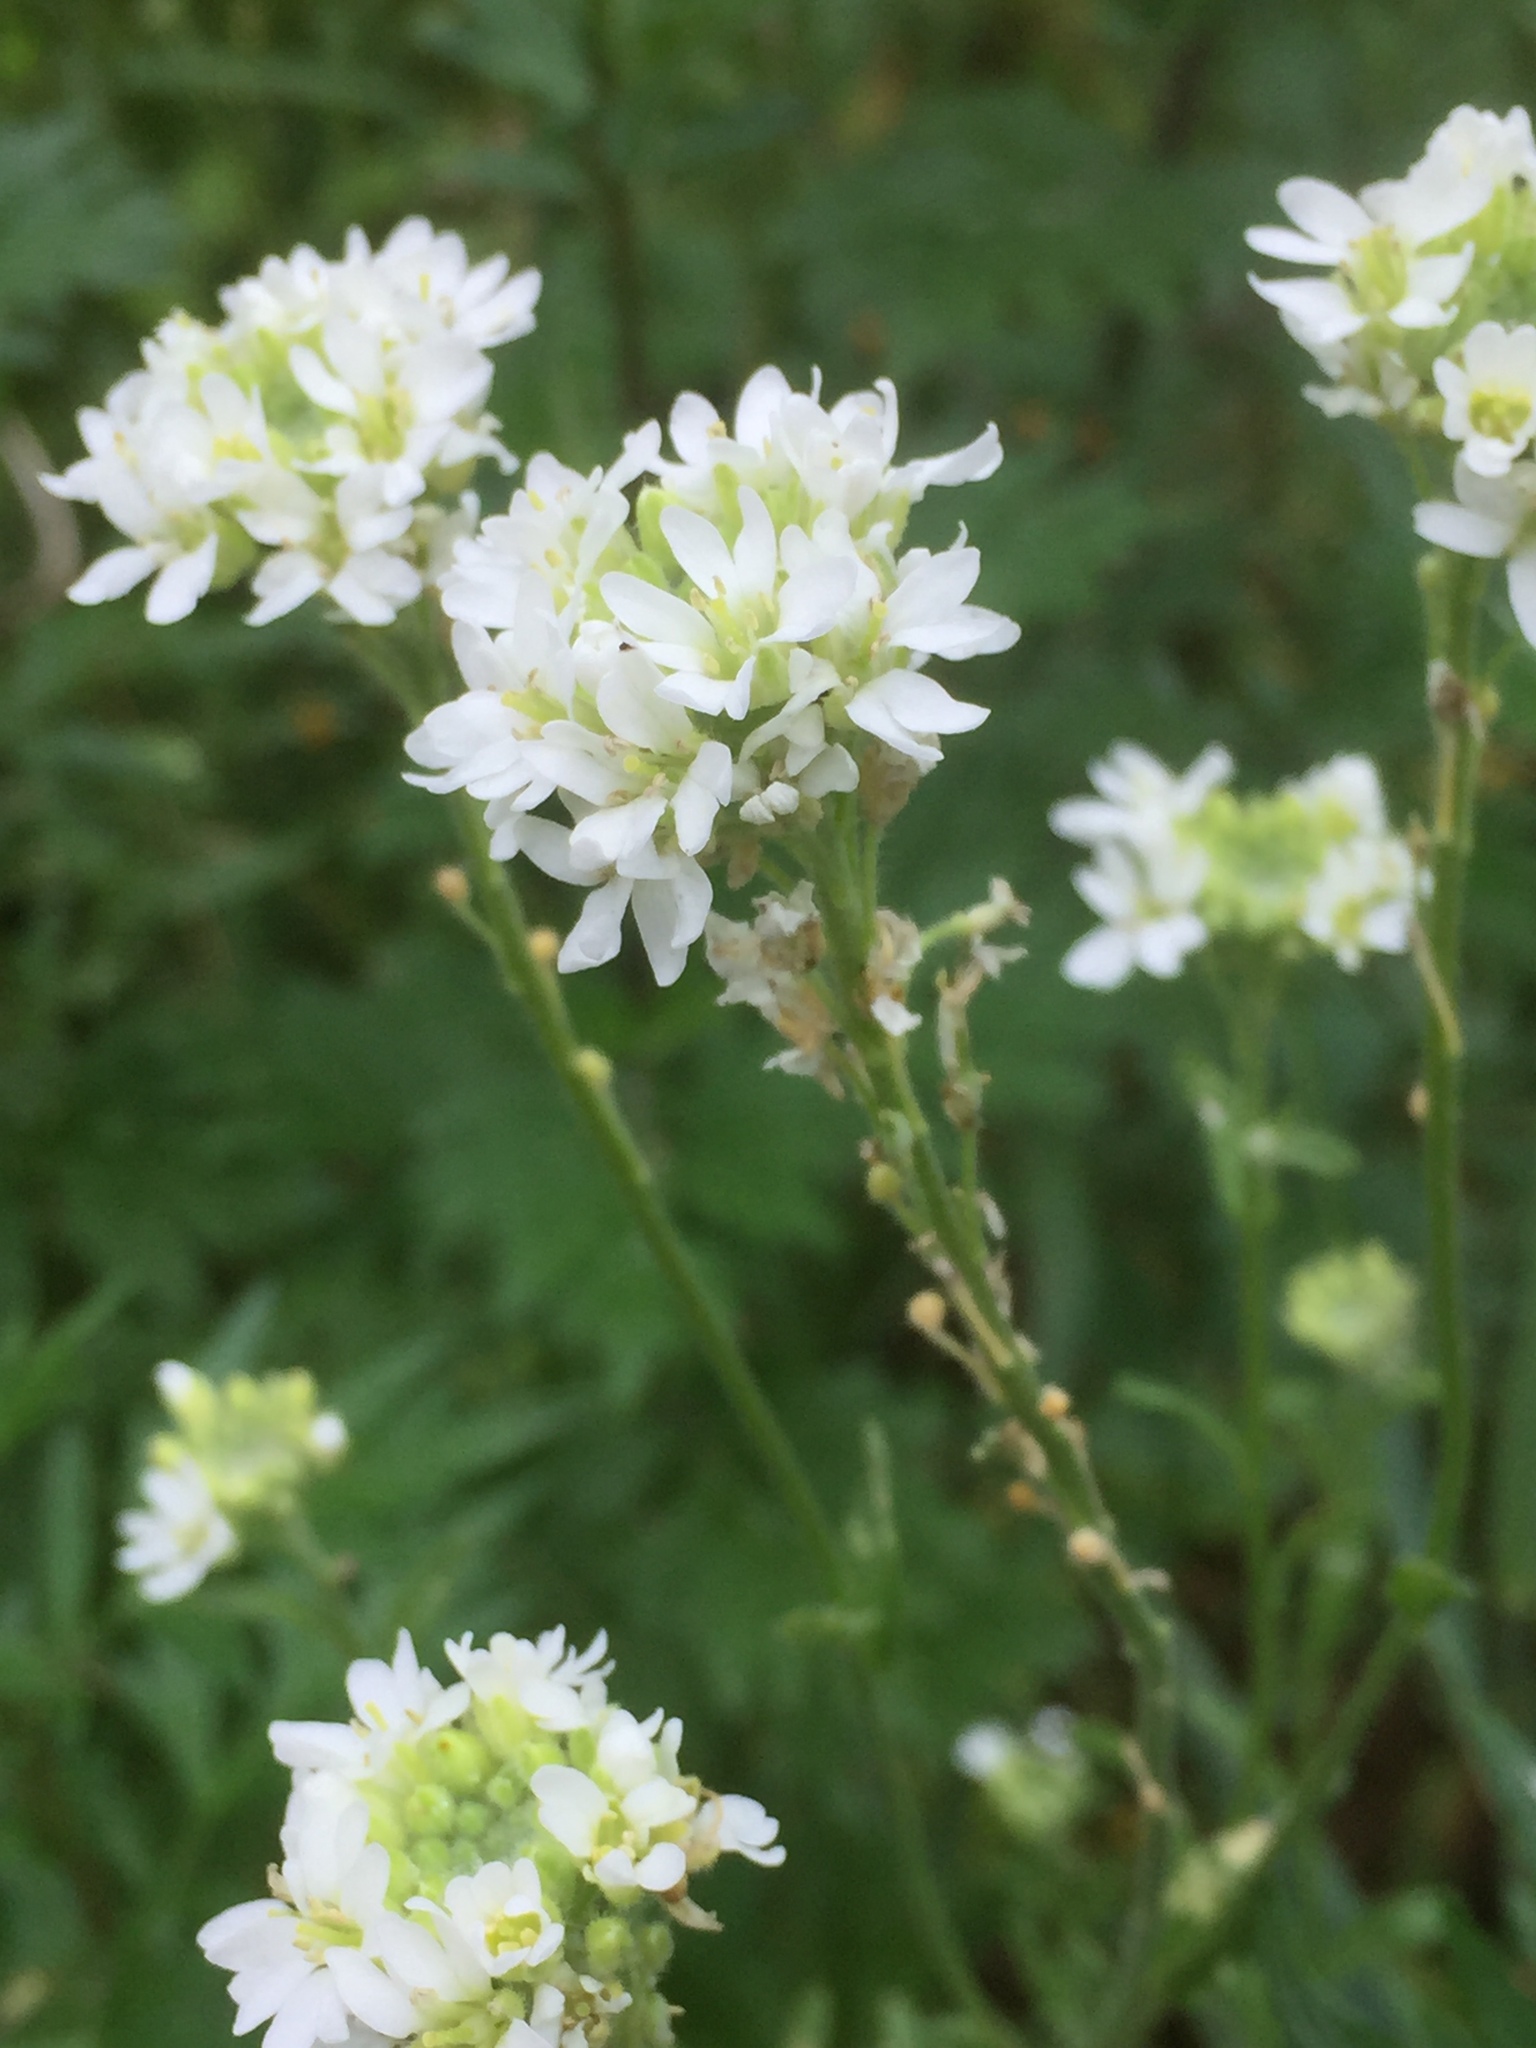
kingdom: Plantae
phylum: Tracheophyta
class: Magnoliopsida
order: Brassicales
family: Brassicaceae
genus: Berteroa
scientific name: Berteroa incana
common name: Hoary alison
